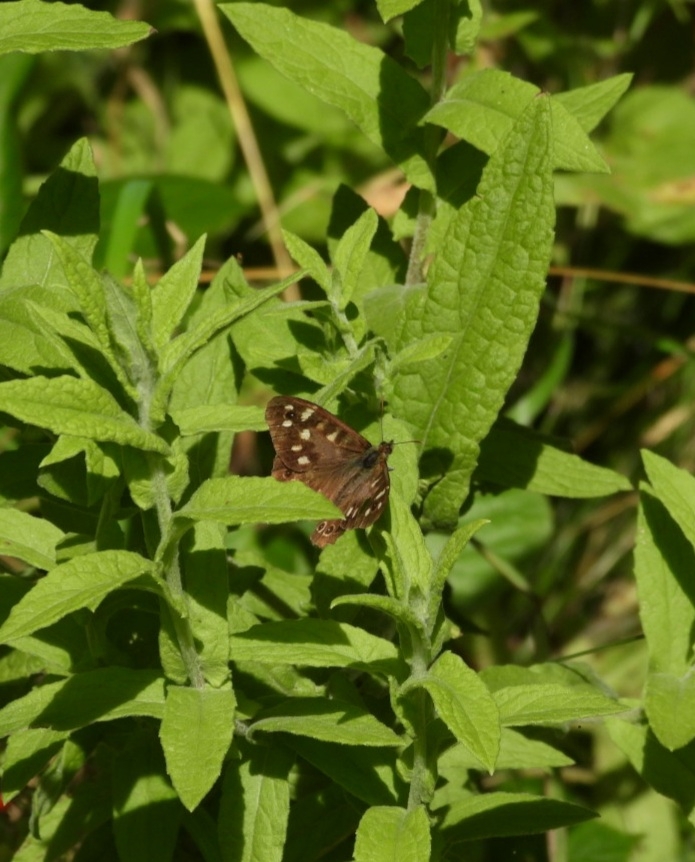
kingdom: Animalia
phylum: Arthropoda
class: Insecta
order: Lepidoptera
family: Nymphalidae
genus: Pararge
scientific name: Pararge aegeria
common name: Speckled wood
